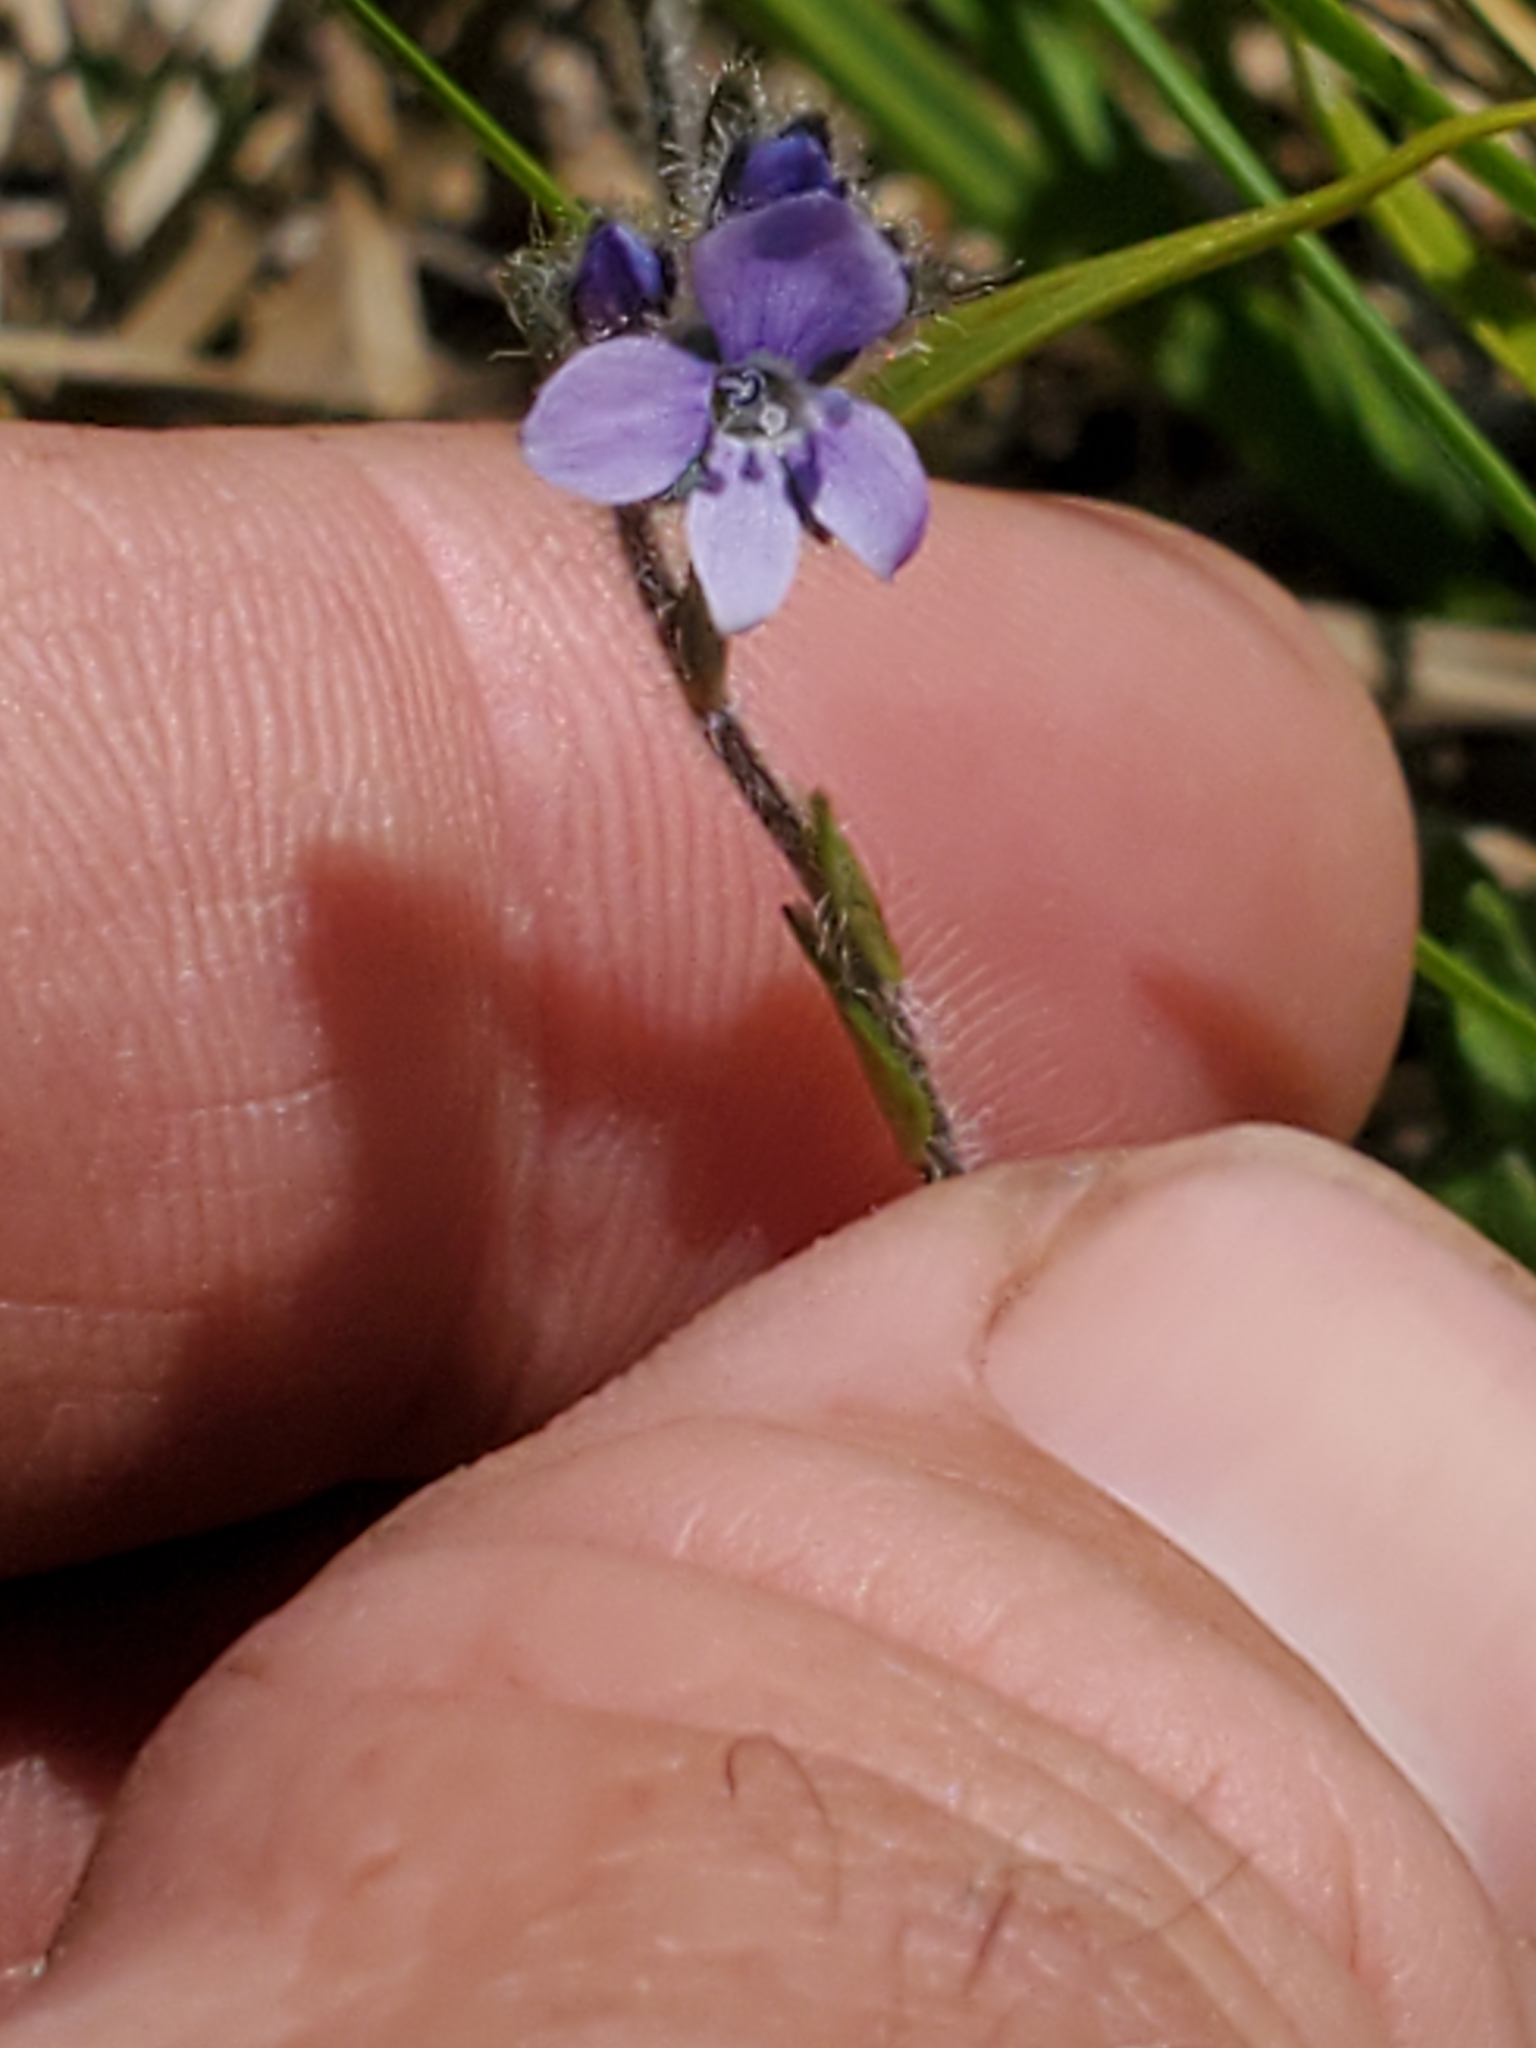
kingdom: Plantae
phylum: Tracheophyta
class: Magnoliopsida
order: Lamiales
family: Plantaginaceae
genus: Veronica
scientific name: Veronica wormskjoldii
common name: American alpine speedwell
